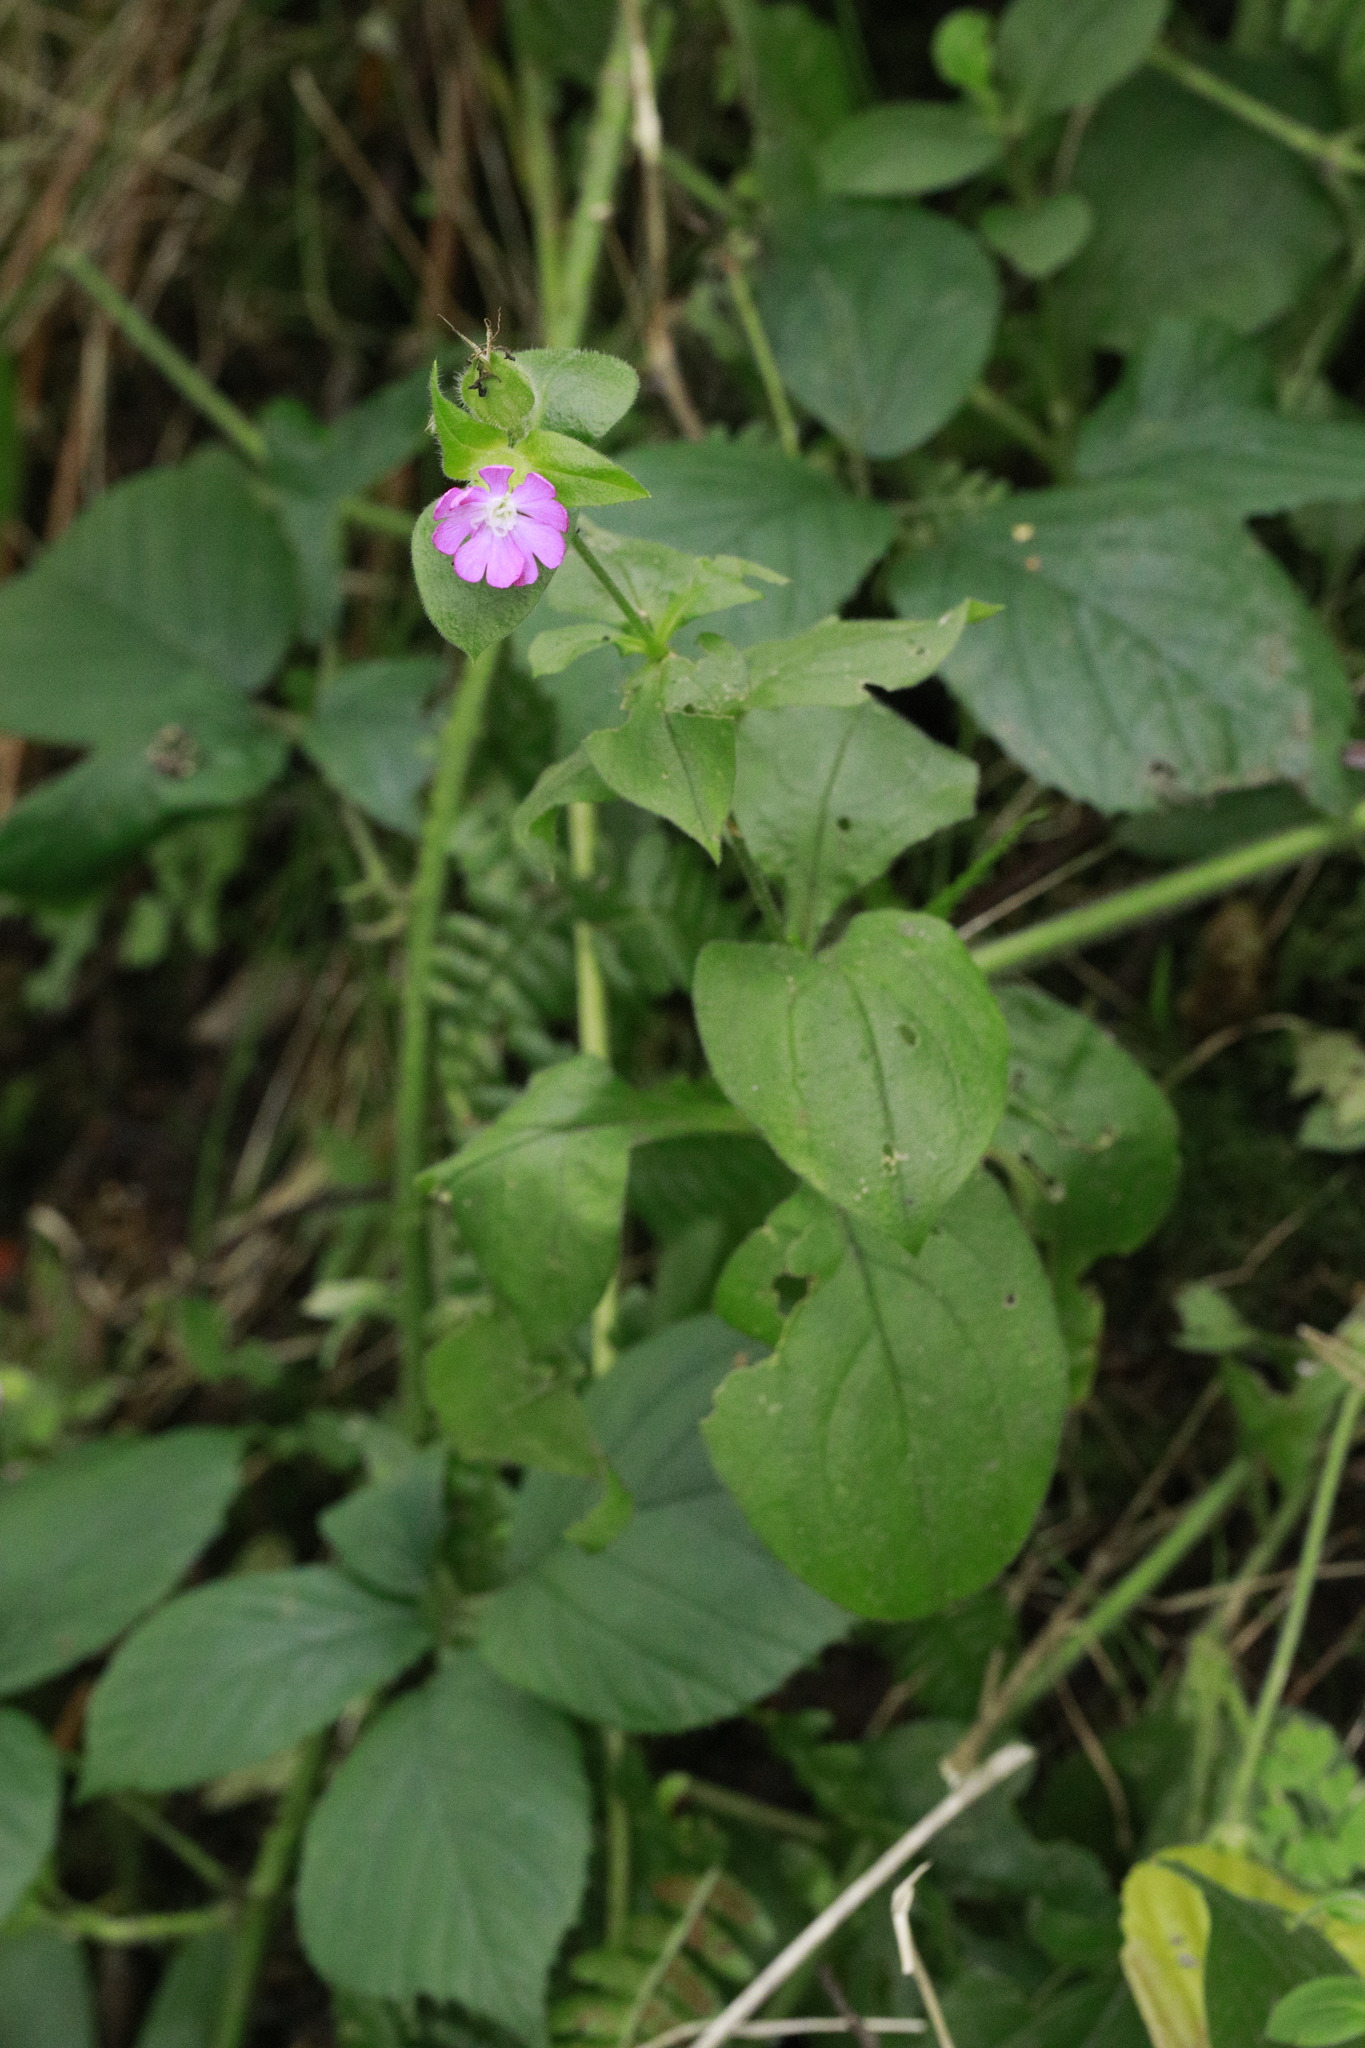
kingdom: Plantae
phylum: Tracheophyta
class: Magnoliopsida
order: Caryophyllales
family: Caryophyllaceae
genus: Silene
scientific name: Silene dioica
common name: Red campion
